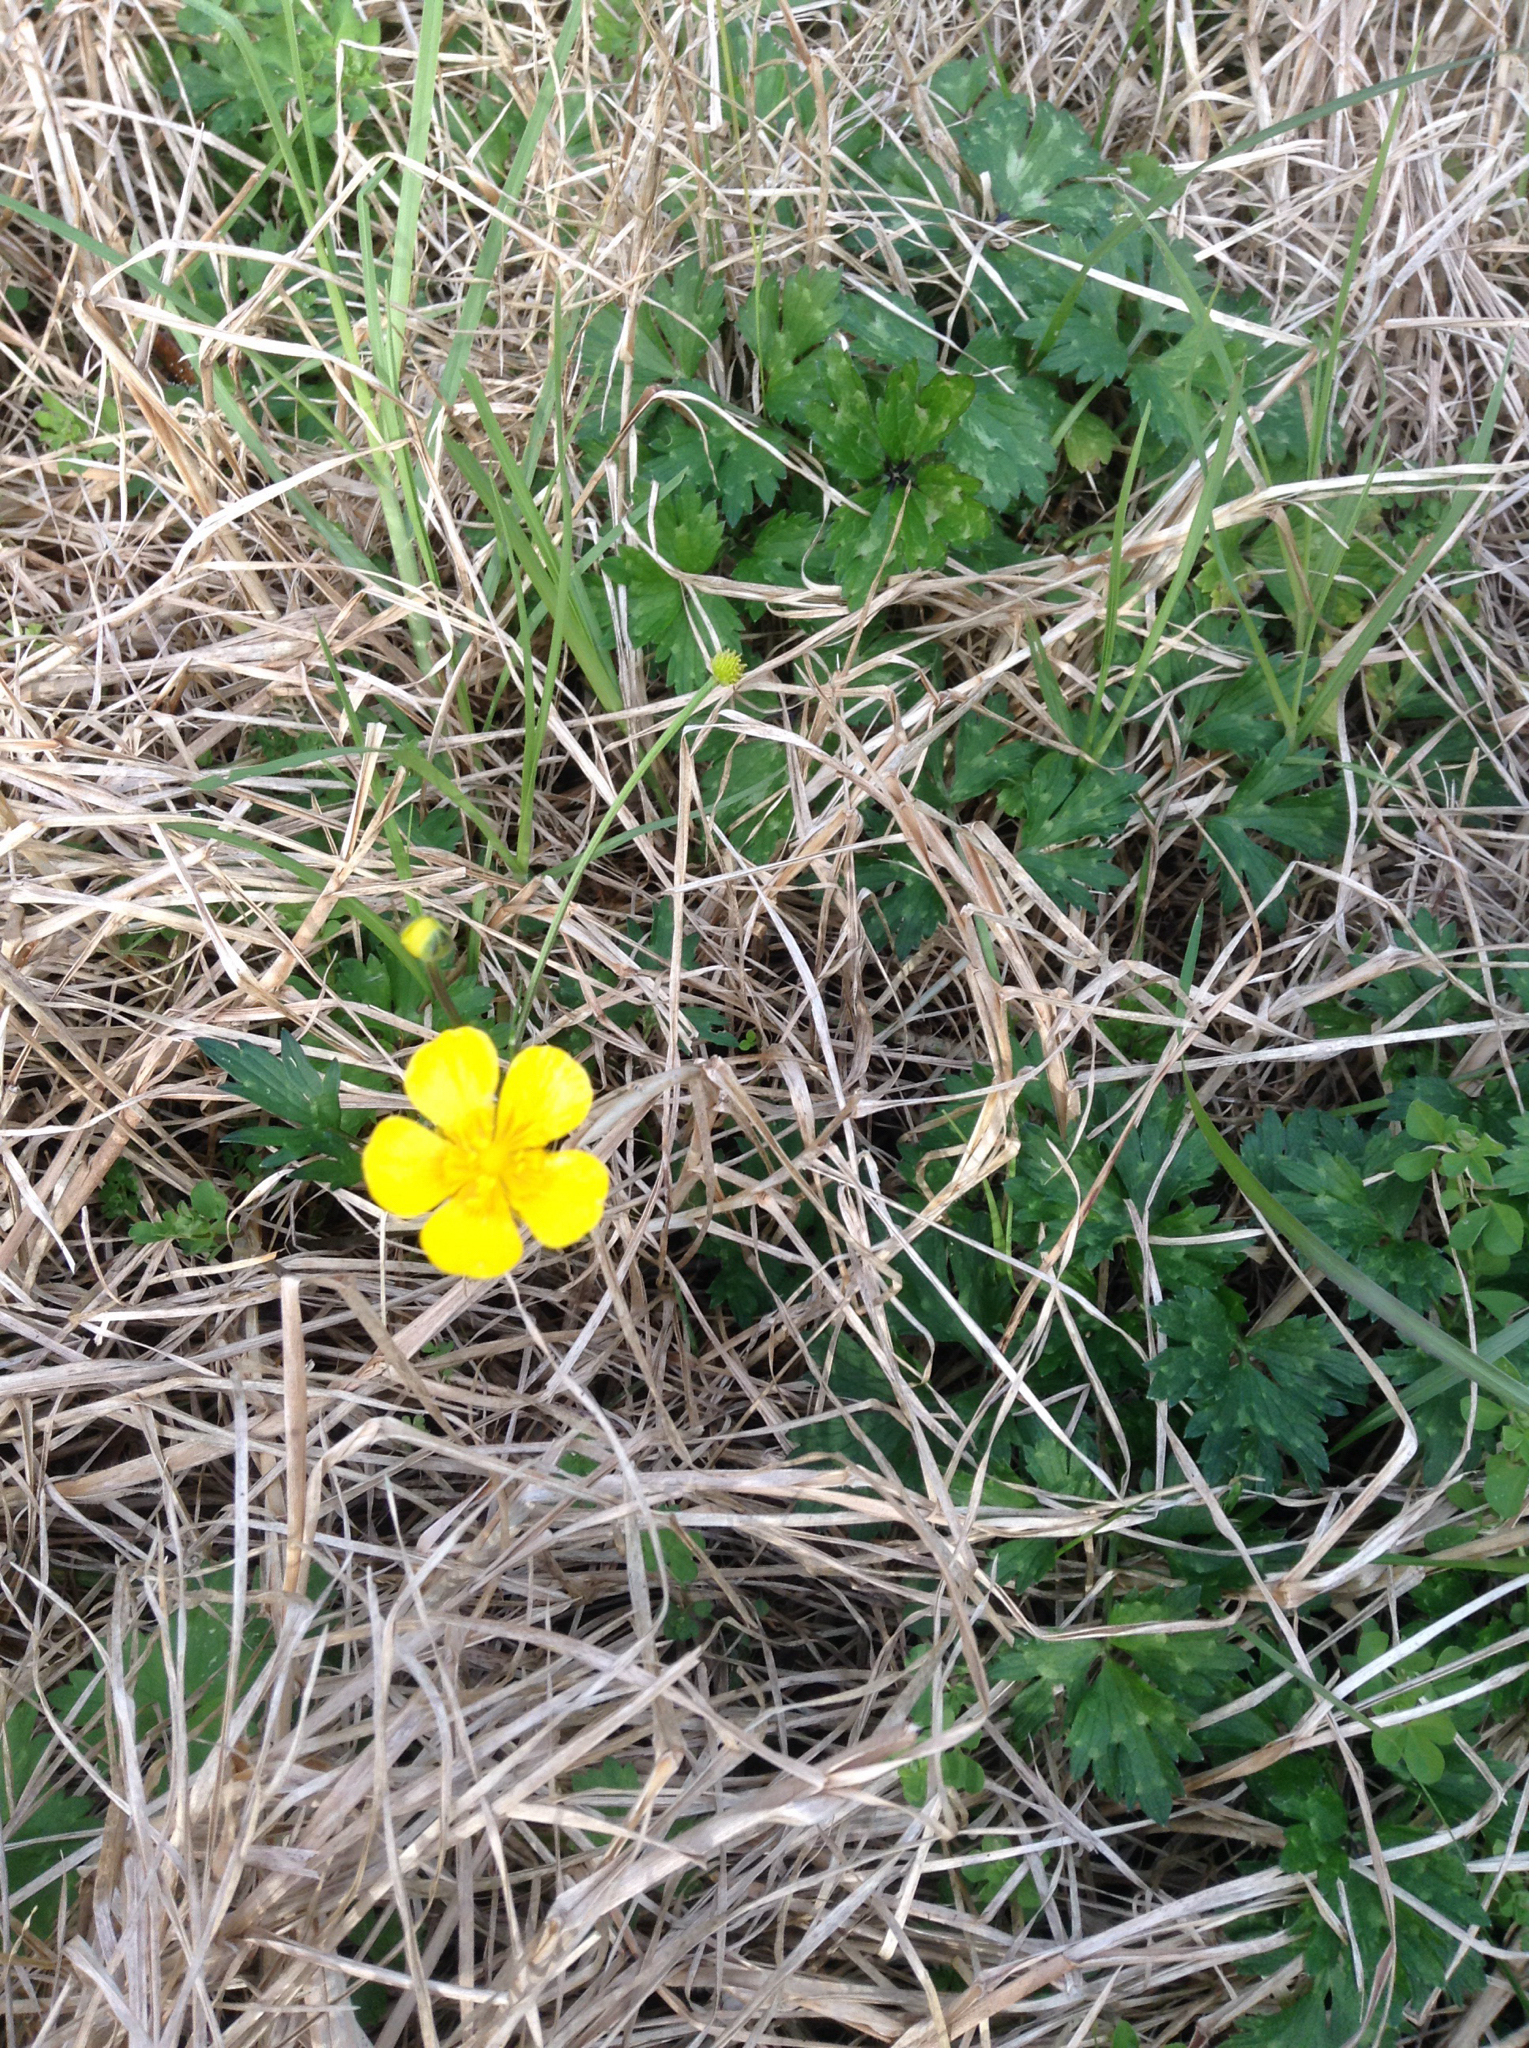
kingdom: Plantae
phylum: Tracheophyta
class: Magnoliopsida
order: Ranunculales
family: Ranunculaceae
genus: Ranunculus
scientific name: Ranunculus repens
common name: Creeping buttercup
